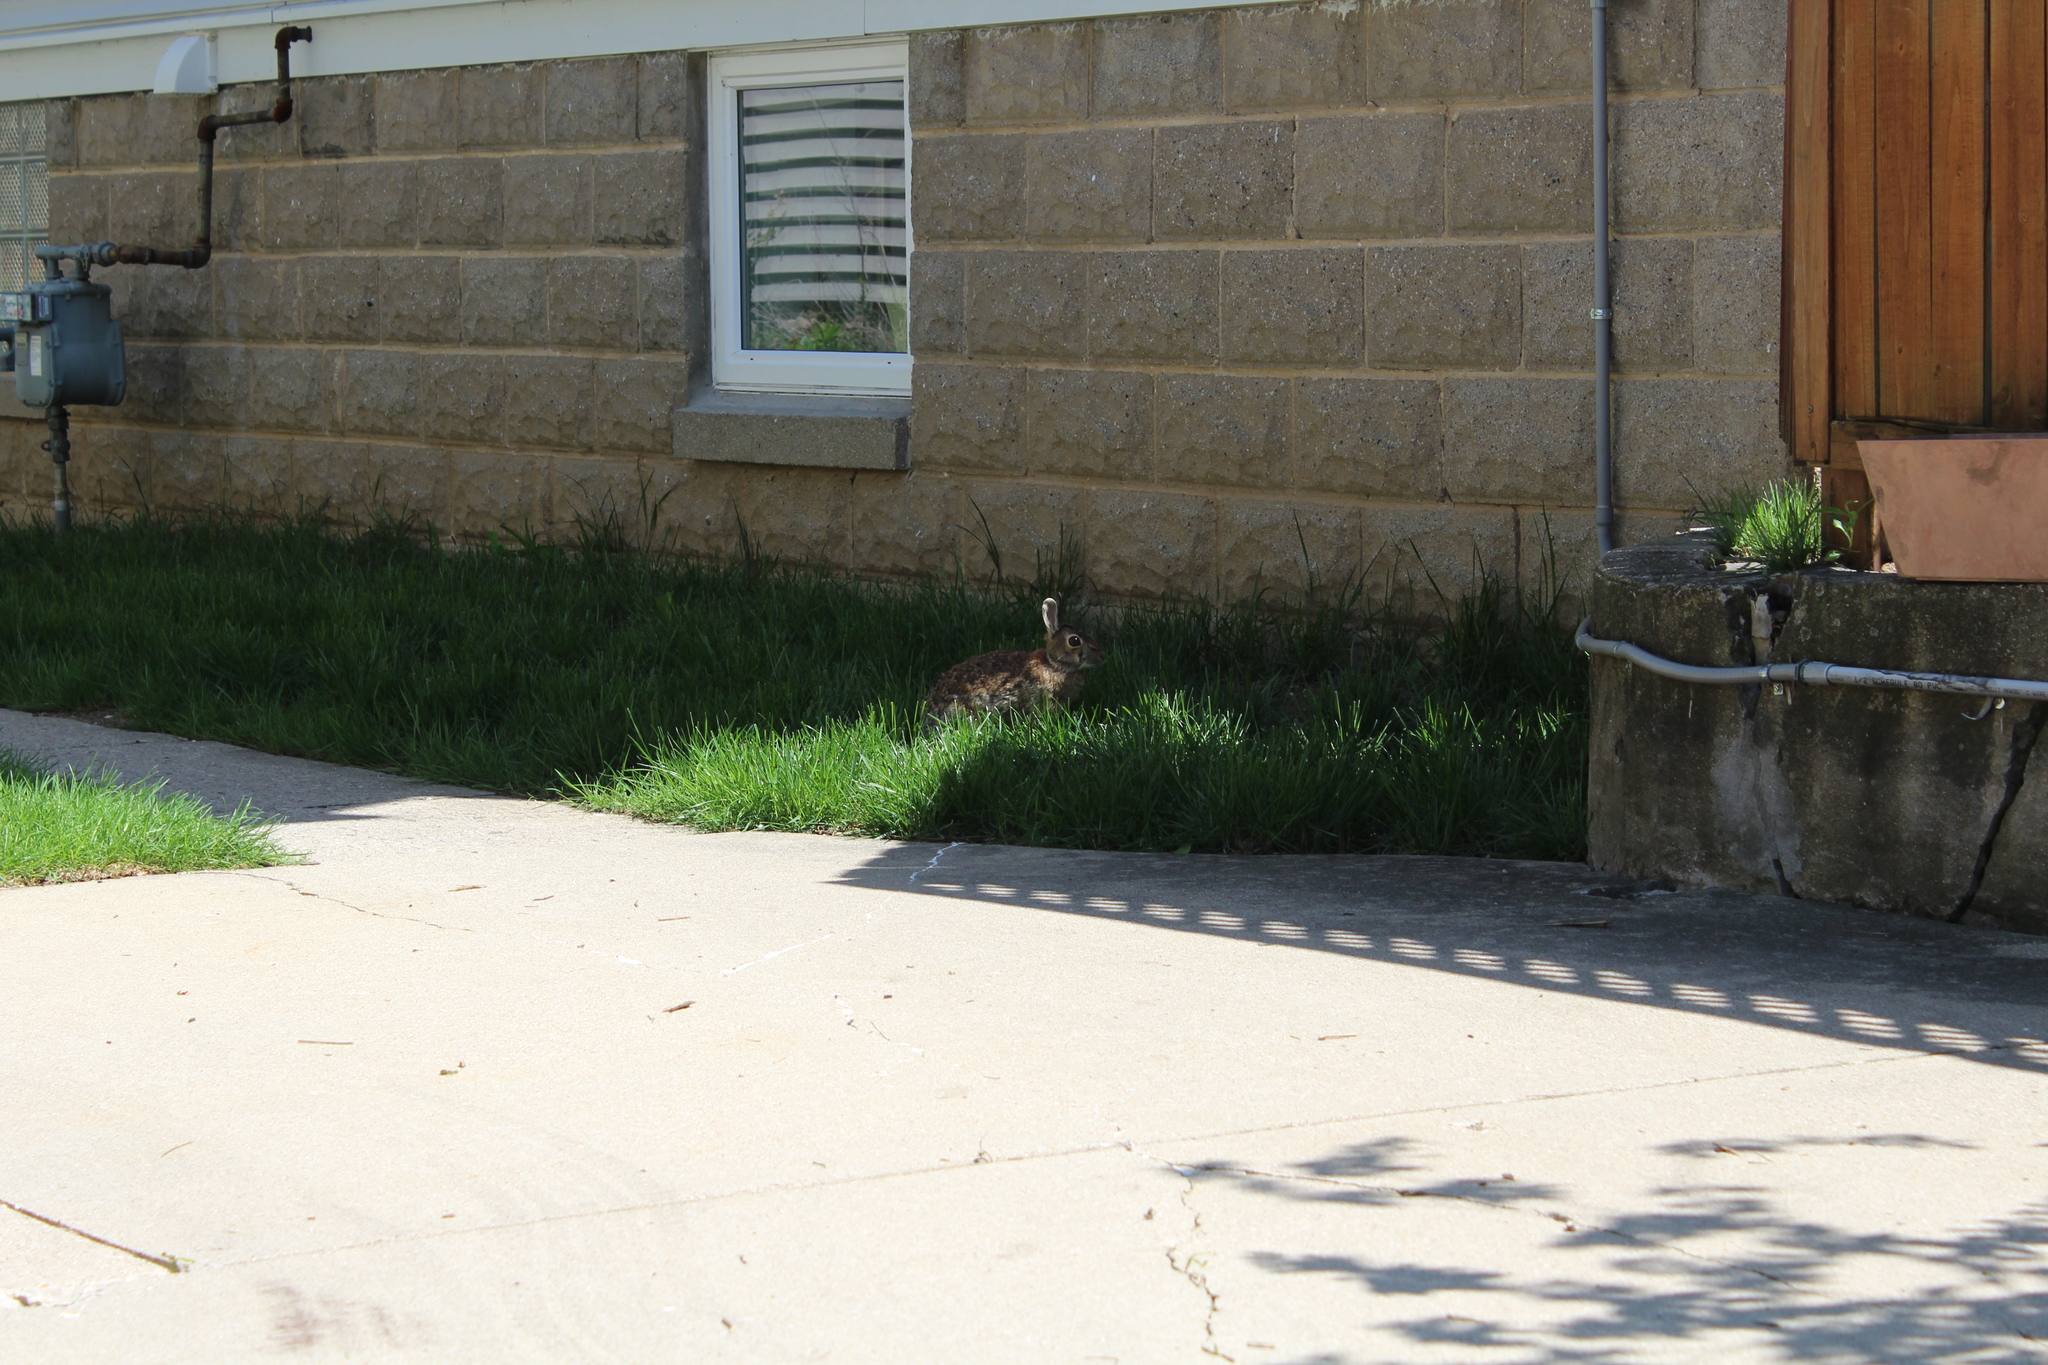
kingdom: Animalia
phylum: Chordata
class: Mammalia
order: Lagomorpha
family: Leporidae
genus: Sylvilagus
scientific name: Sylvilagus floridanus
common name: Eastern cottontail
